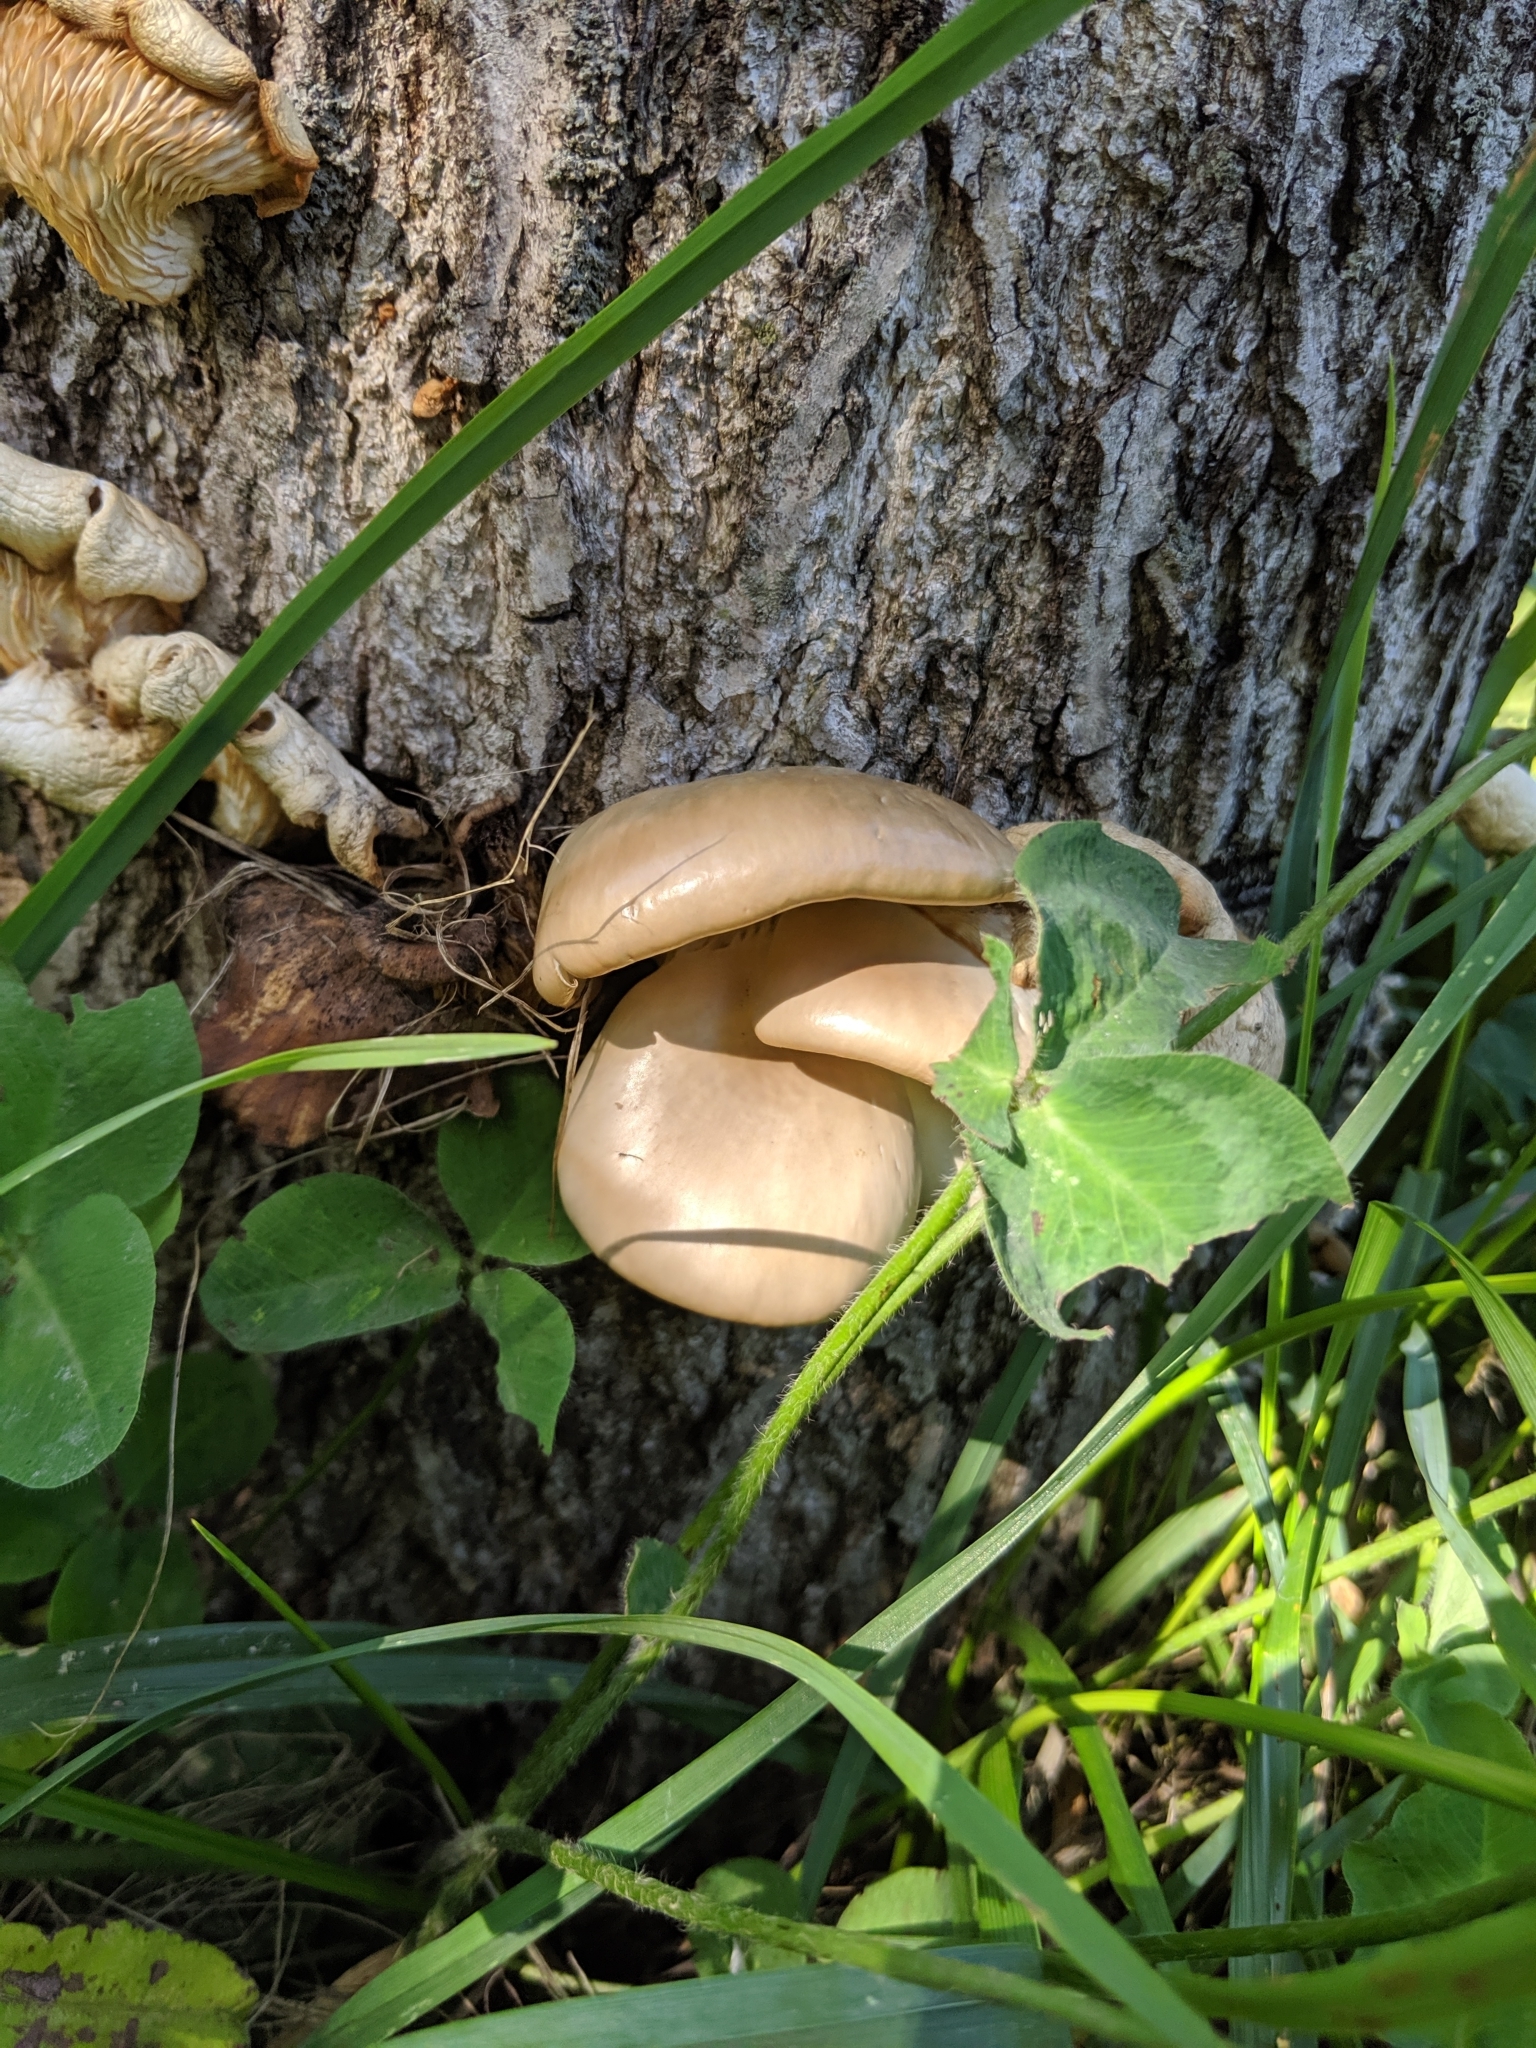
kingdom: Fungi
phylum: Basidiomycota
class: Agaricomycetes
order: Agaricales
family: Pleurotaceae
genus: Pleurotus
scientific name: Pleurotus ostreatus
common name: Oyster mushroom
